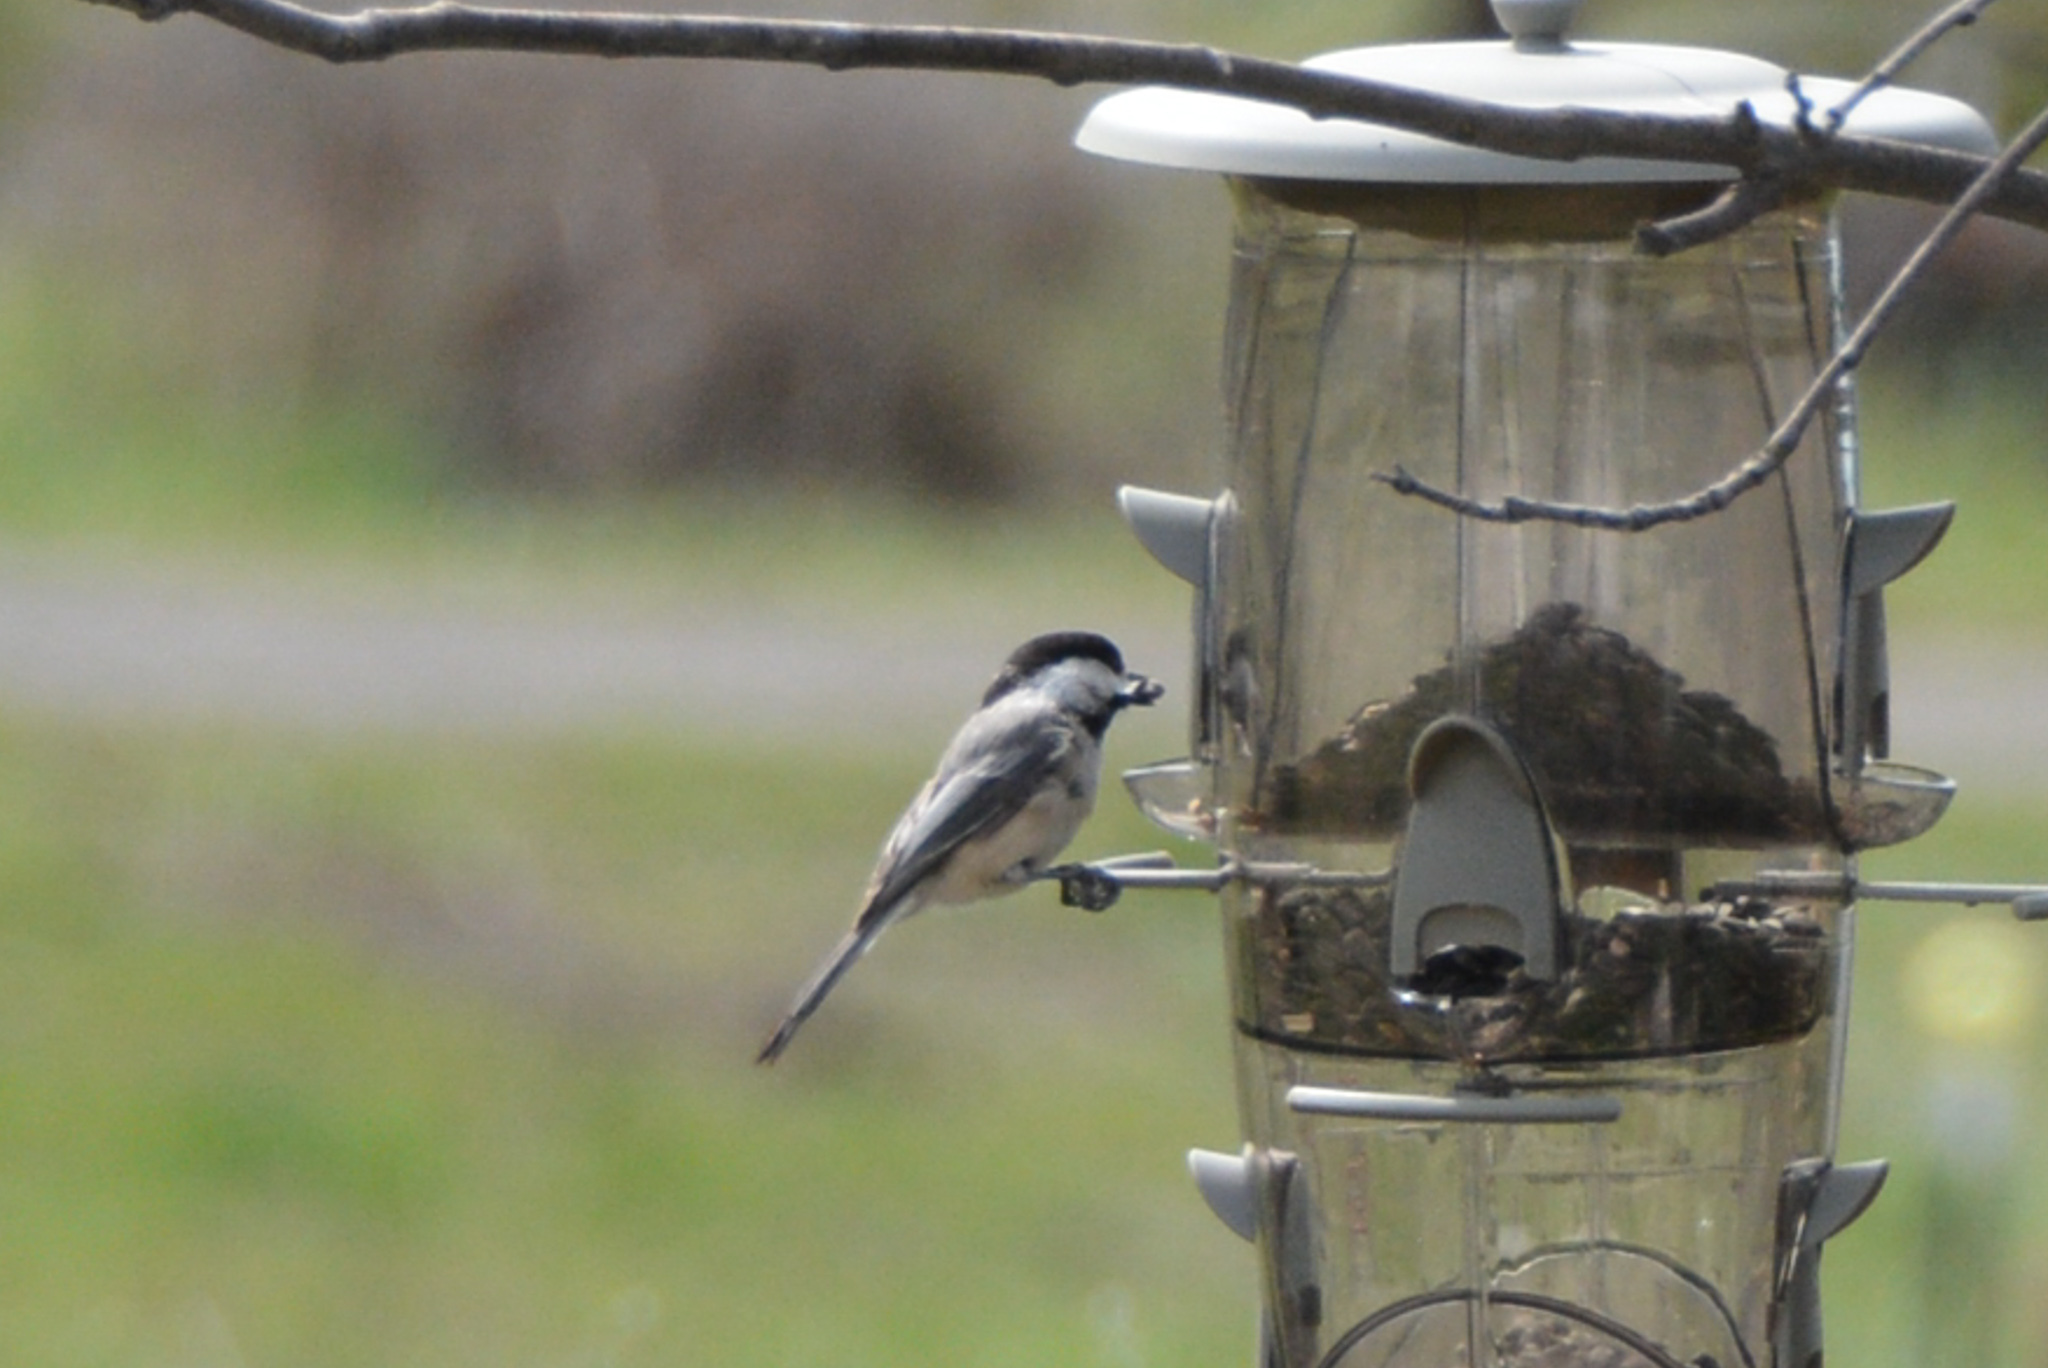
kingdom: Animalia
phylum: Chordata
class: Aves
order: Passeriformes
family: Paridae
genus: Poecile
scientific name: Poecile atricapillus
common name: Black-capped chickadee
